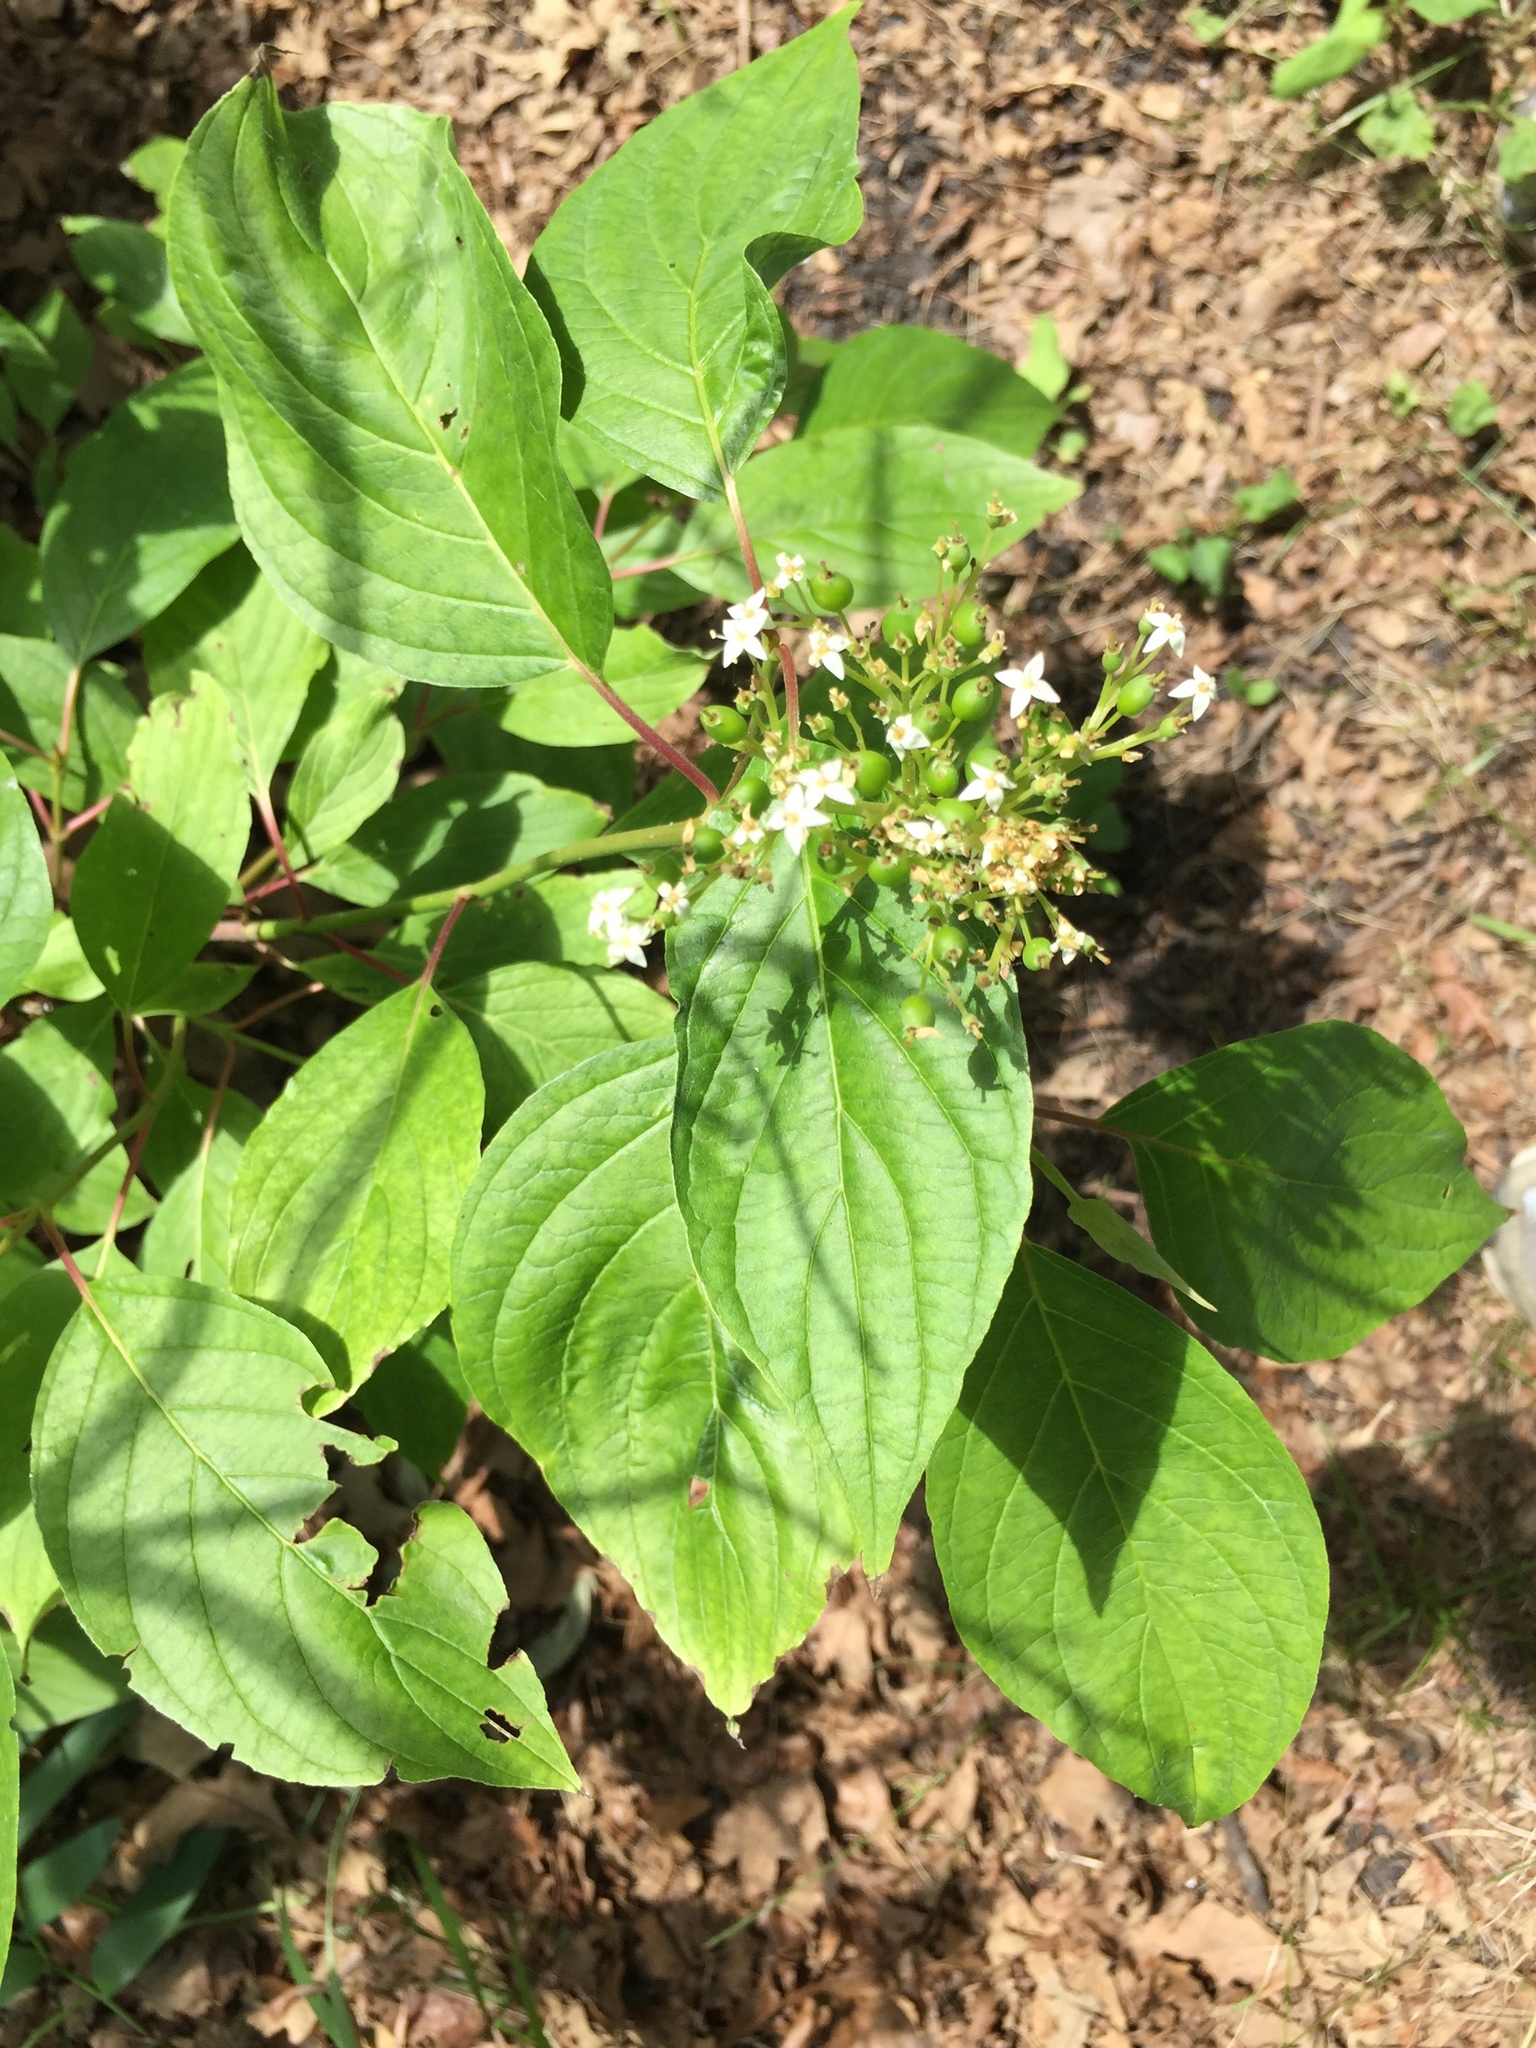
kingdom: Plantae
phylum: Tracheophyta
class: Magnoliopsida
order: Cornales
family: Cornaceae
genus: Cornus
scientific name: Cornus sericea
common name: Red-osier dogwood
